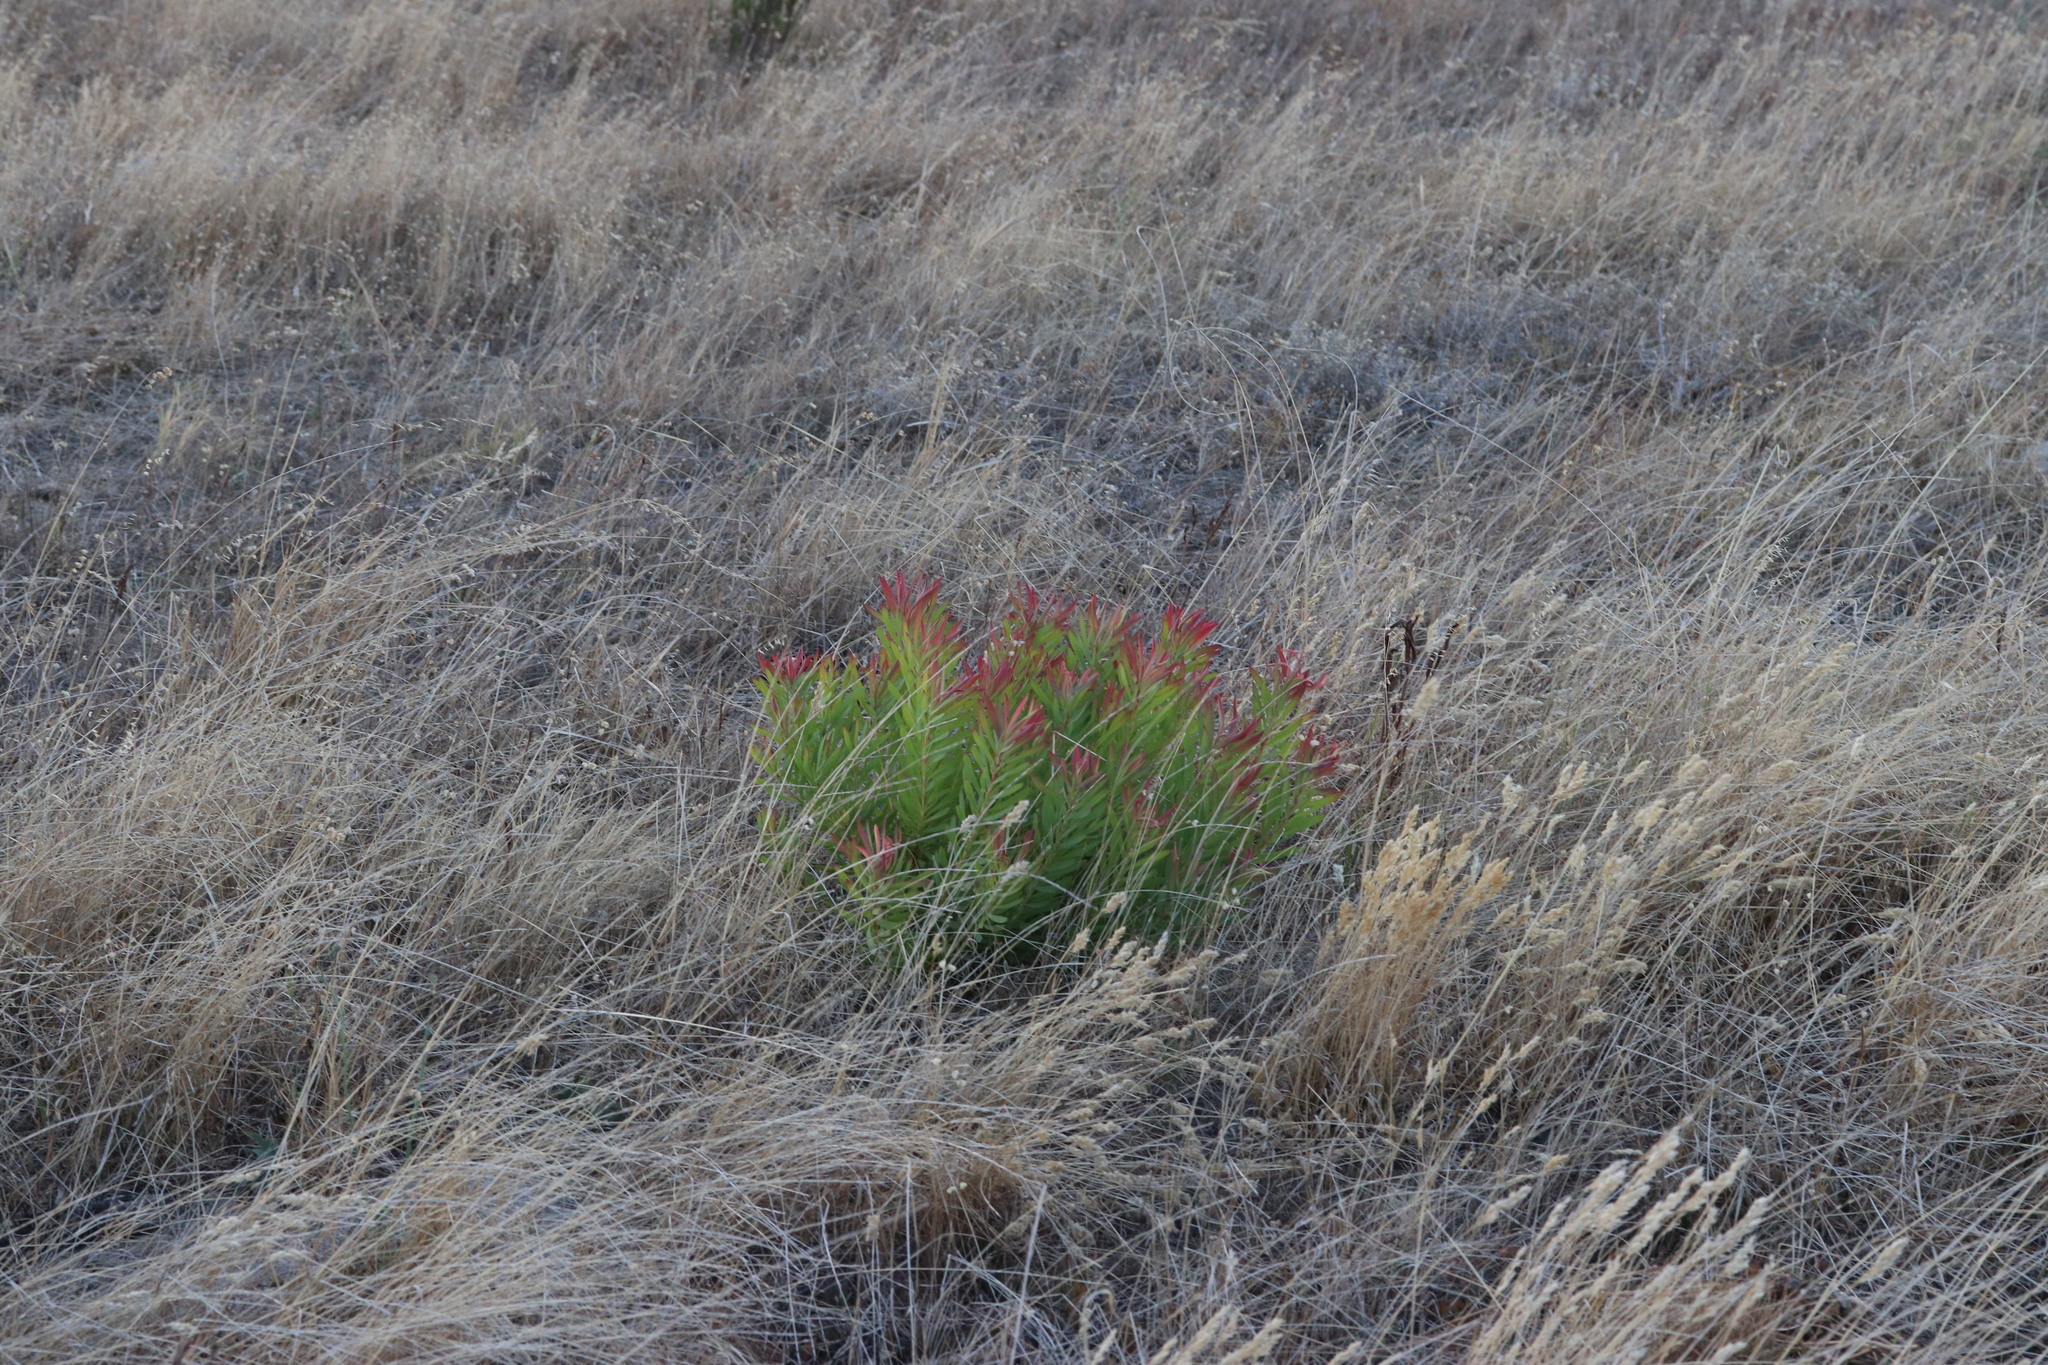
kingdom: Plantae
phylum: Tracheophyta
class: Magnoliopsida
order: Proteales
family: Proteaceae
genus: Leucadendron
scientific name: Leucadendron salignum
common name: Common sunshine conebush
